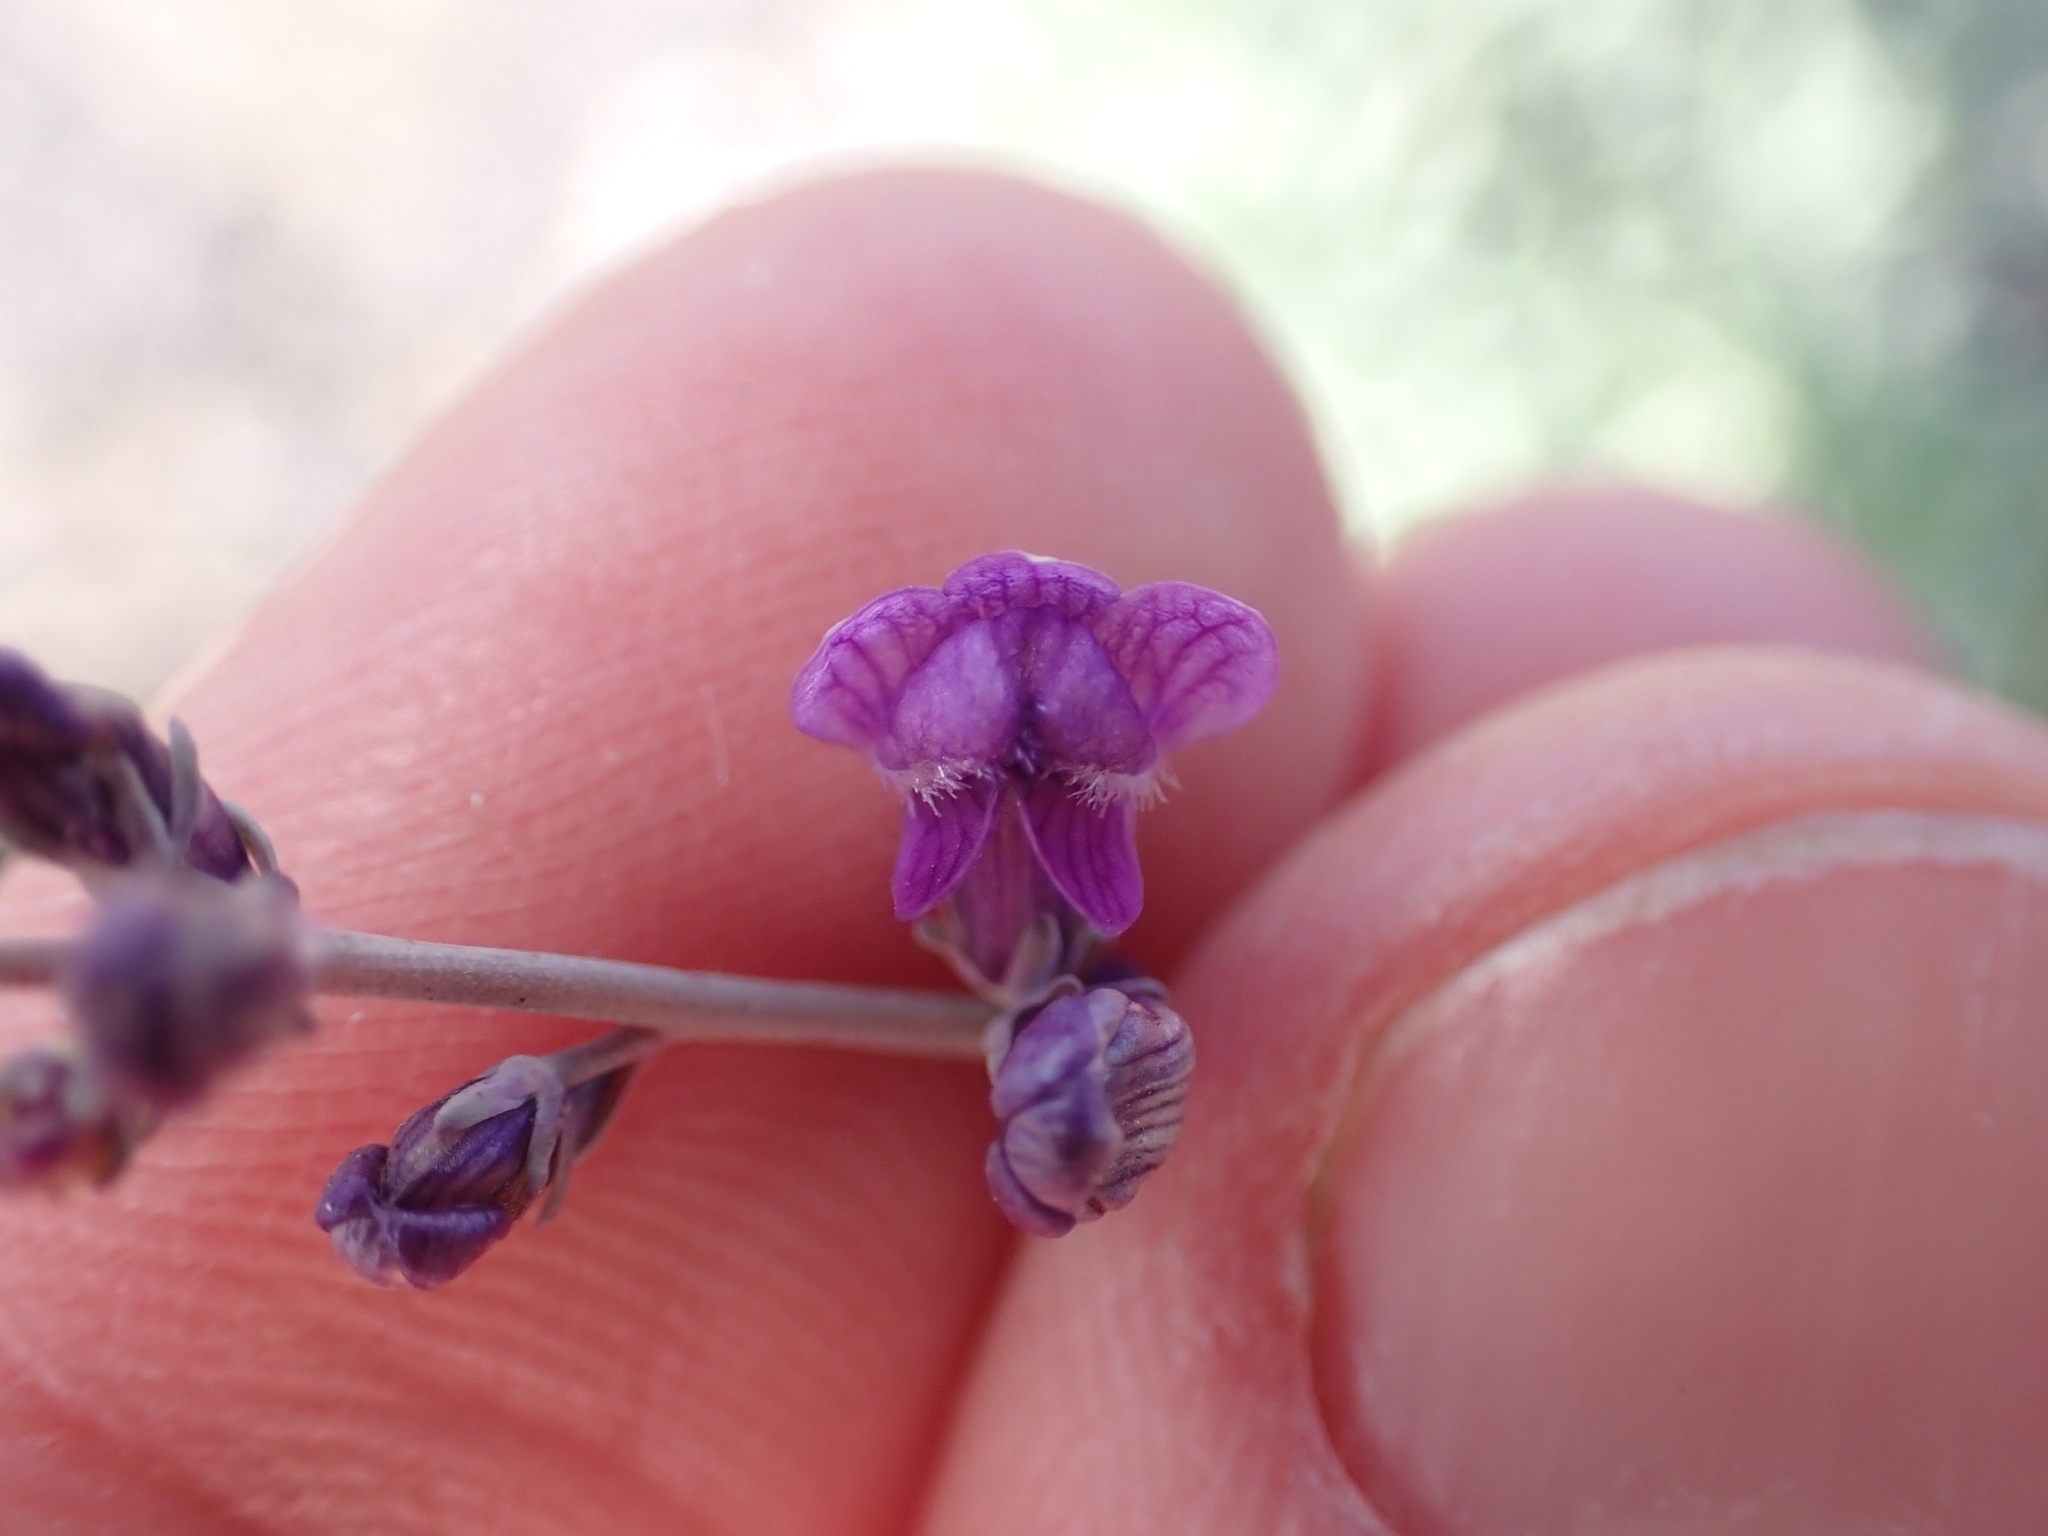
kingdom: Plantae
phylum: Tracheophyta
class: Magnoliopsida
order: Lamiales
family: Plantaginaceae
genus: Linaria
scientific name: Linaria purpurea
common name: Purple toadflax
